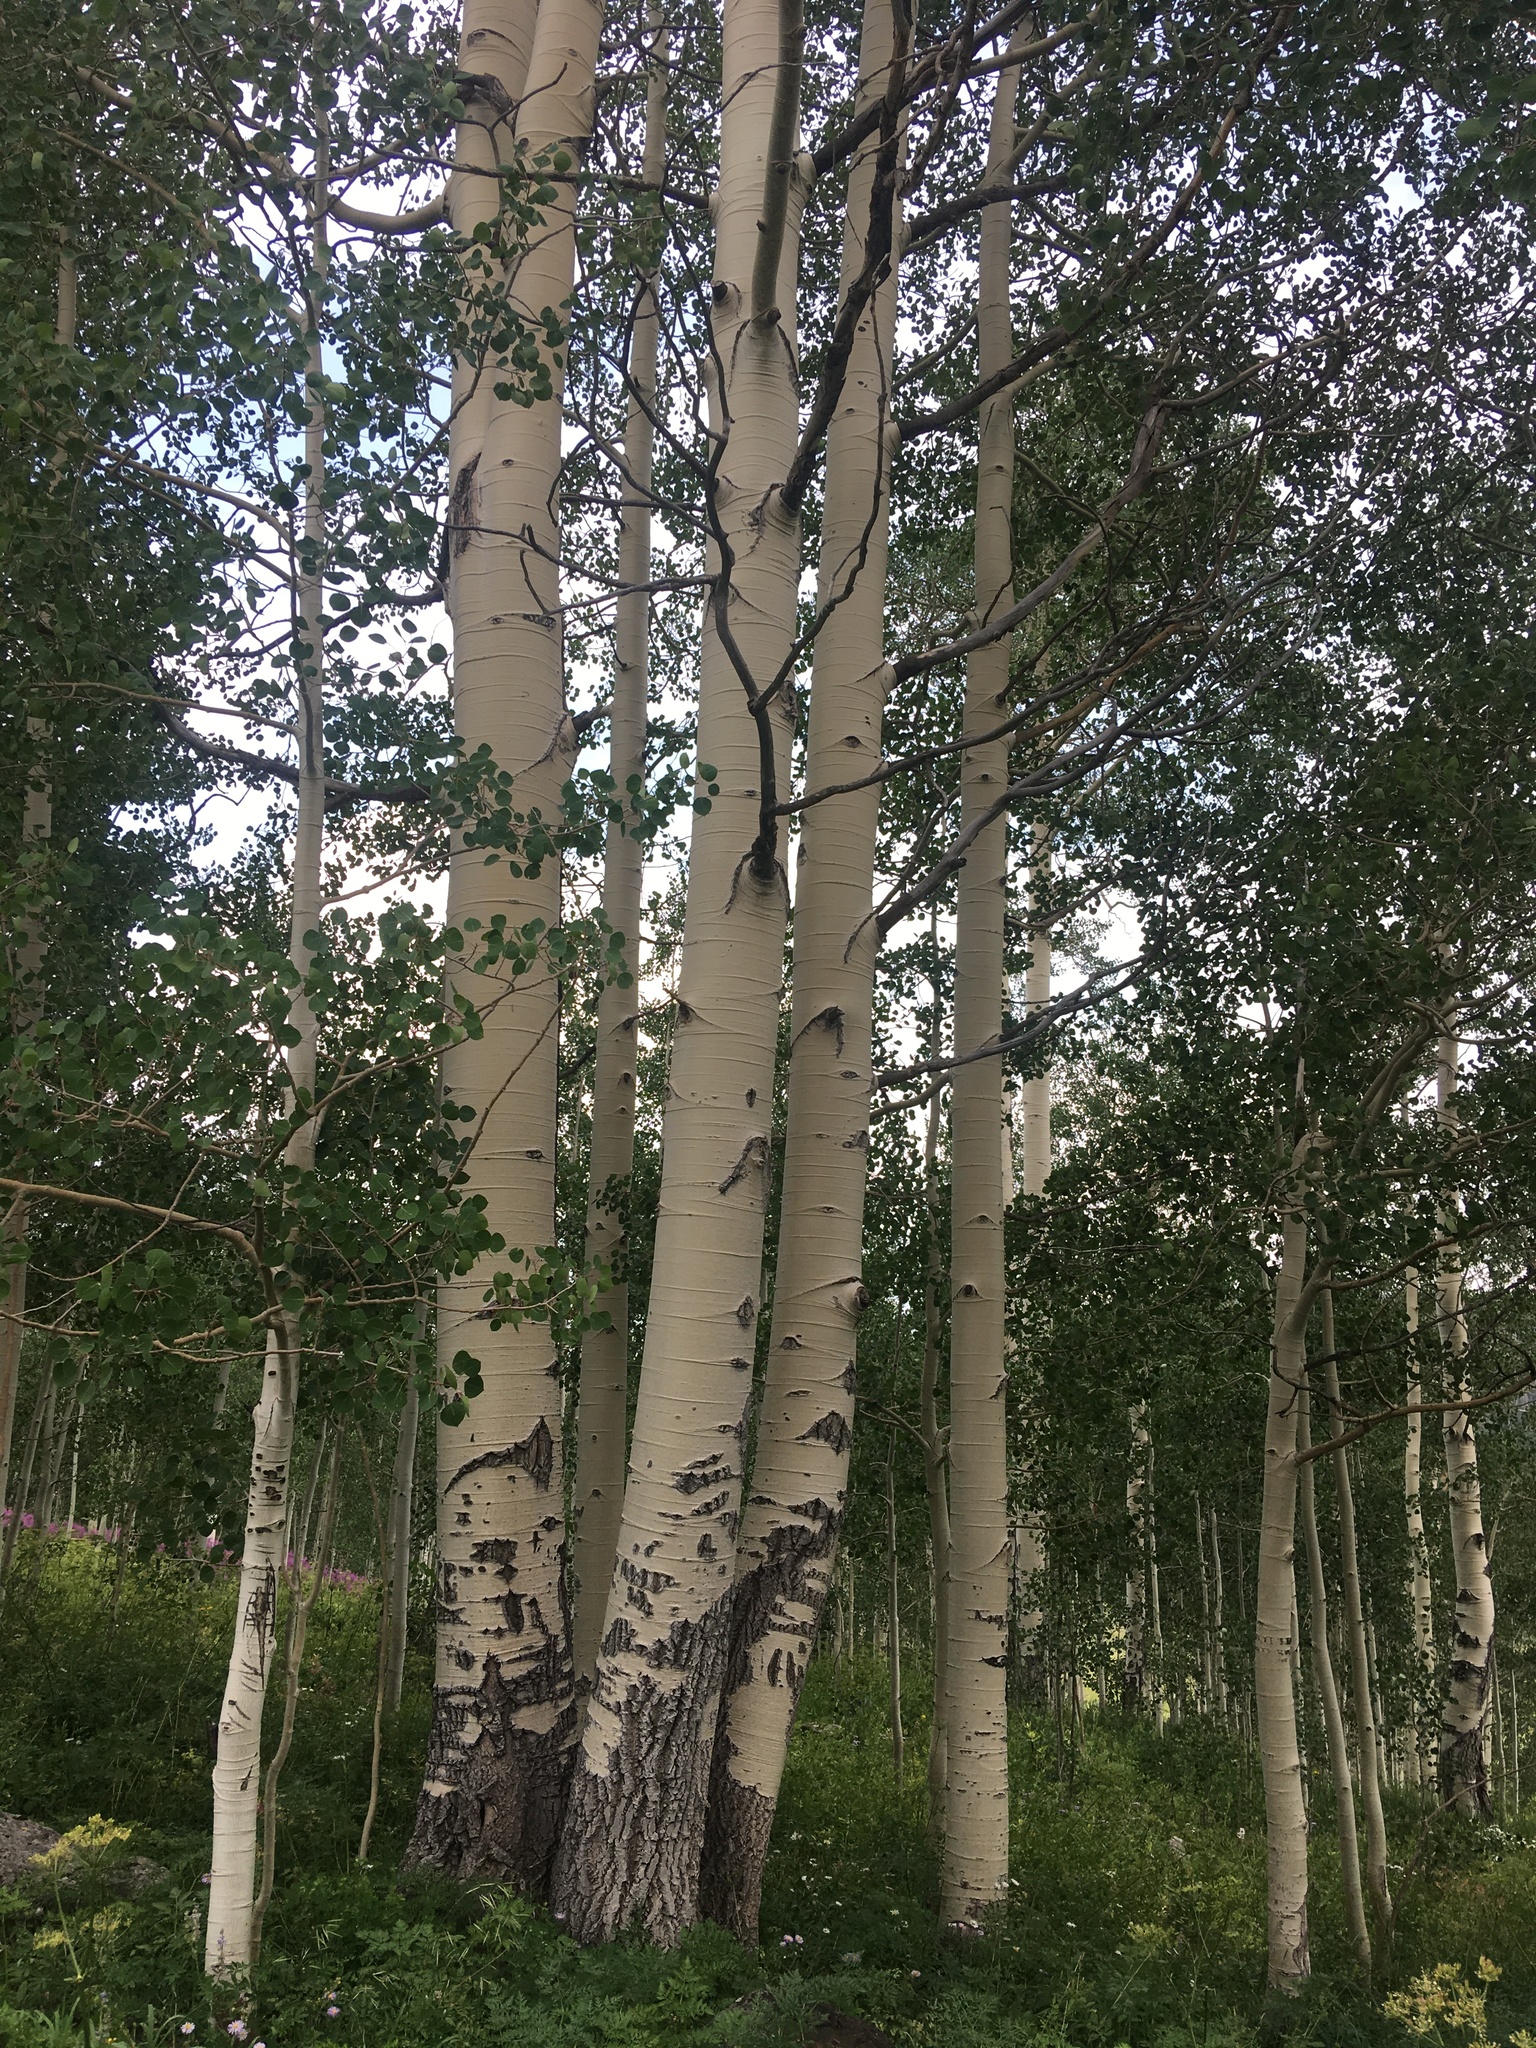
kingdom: Plantae
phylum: Tracheophyta
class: Magnoliopsida
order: Malpighiales
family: Salicaceae
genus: Populus
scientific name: Populus tremuloides
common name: Quaking aspen
